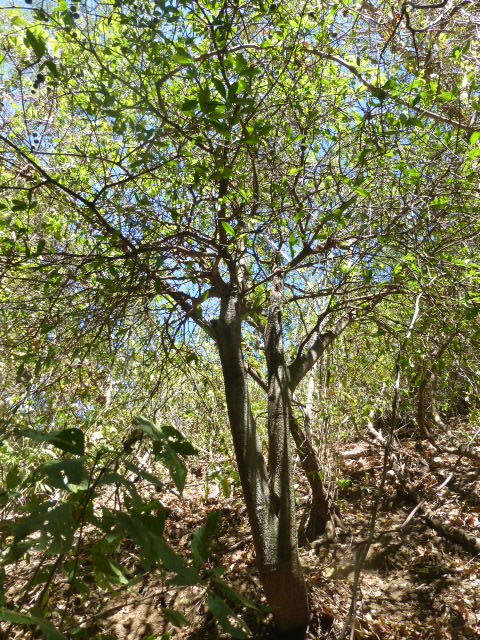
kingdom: Plantae
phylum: Tracheophyta
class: Magnoliopsida
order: Ericales
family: Primulaceae
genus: Bonellia
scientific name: Bonellia nervosa
